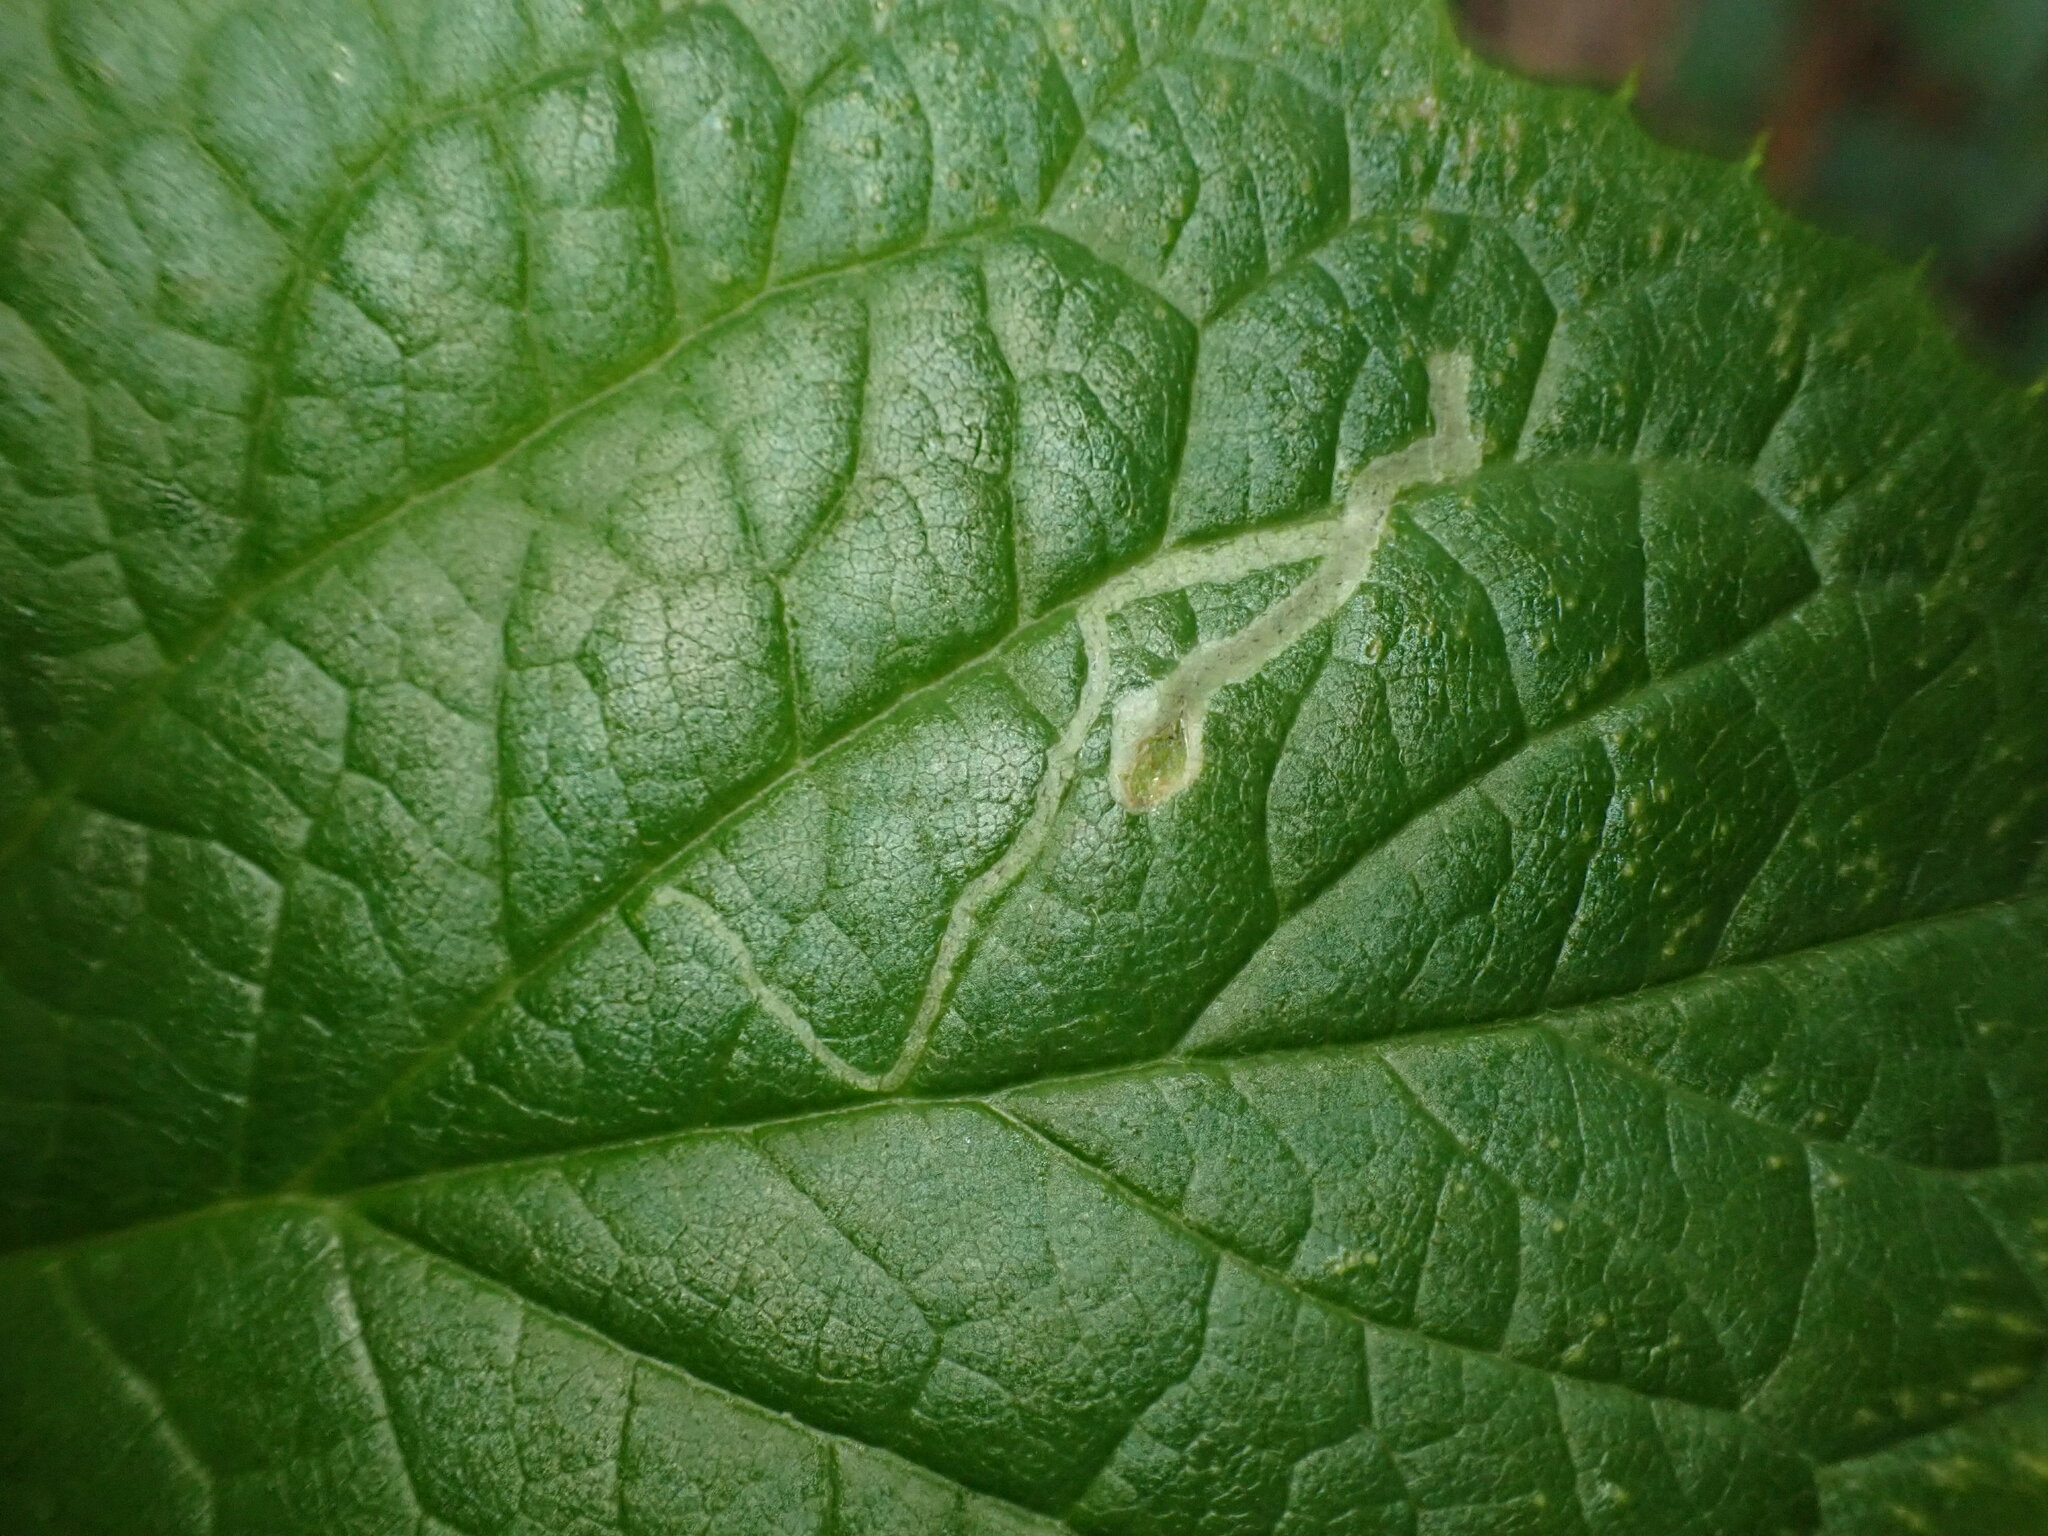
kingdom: Animalia
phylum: Arthropoda
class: Insecta
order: Diptera
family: Agromyzidae
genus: Liriomyza
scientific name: Liriomyza philadelphivora
